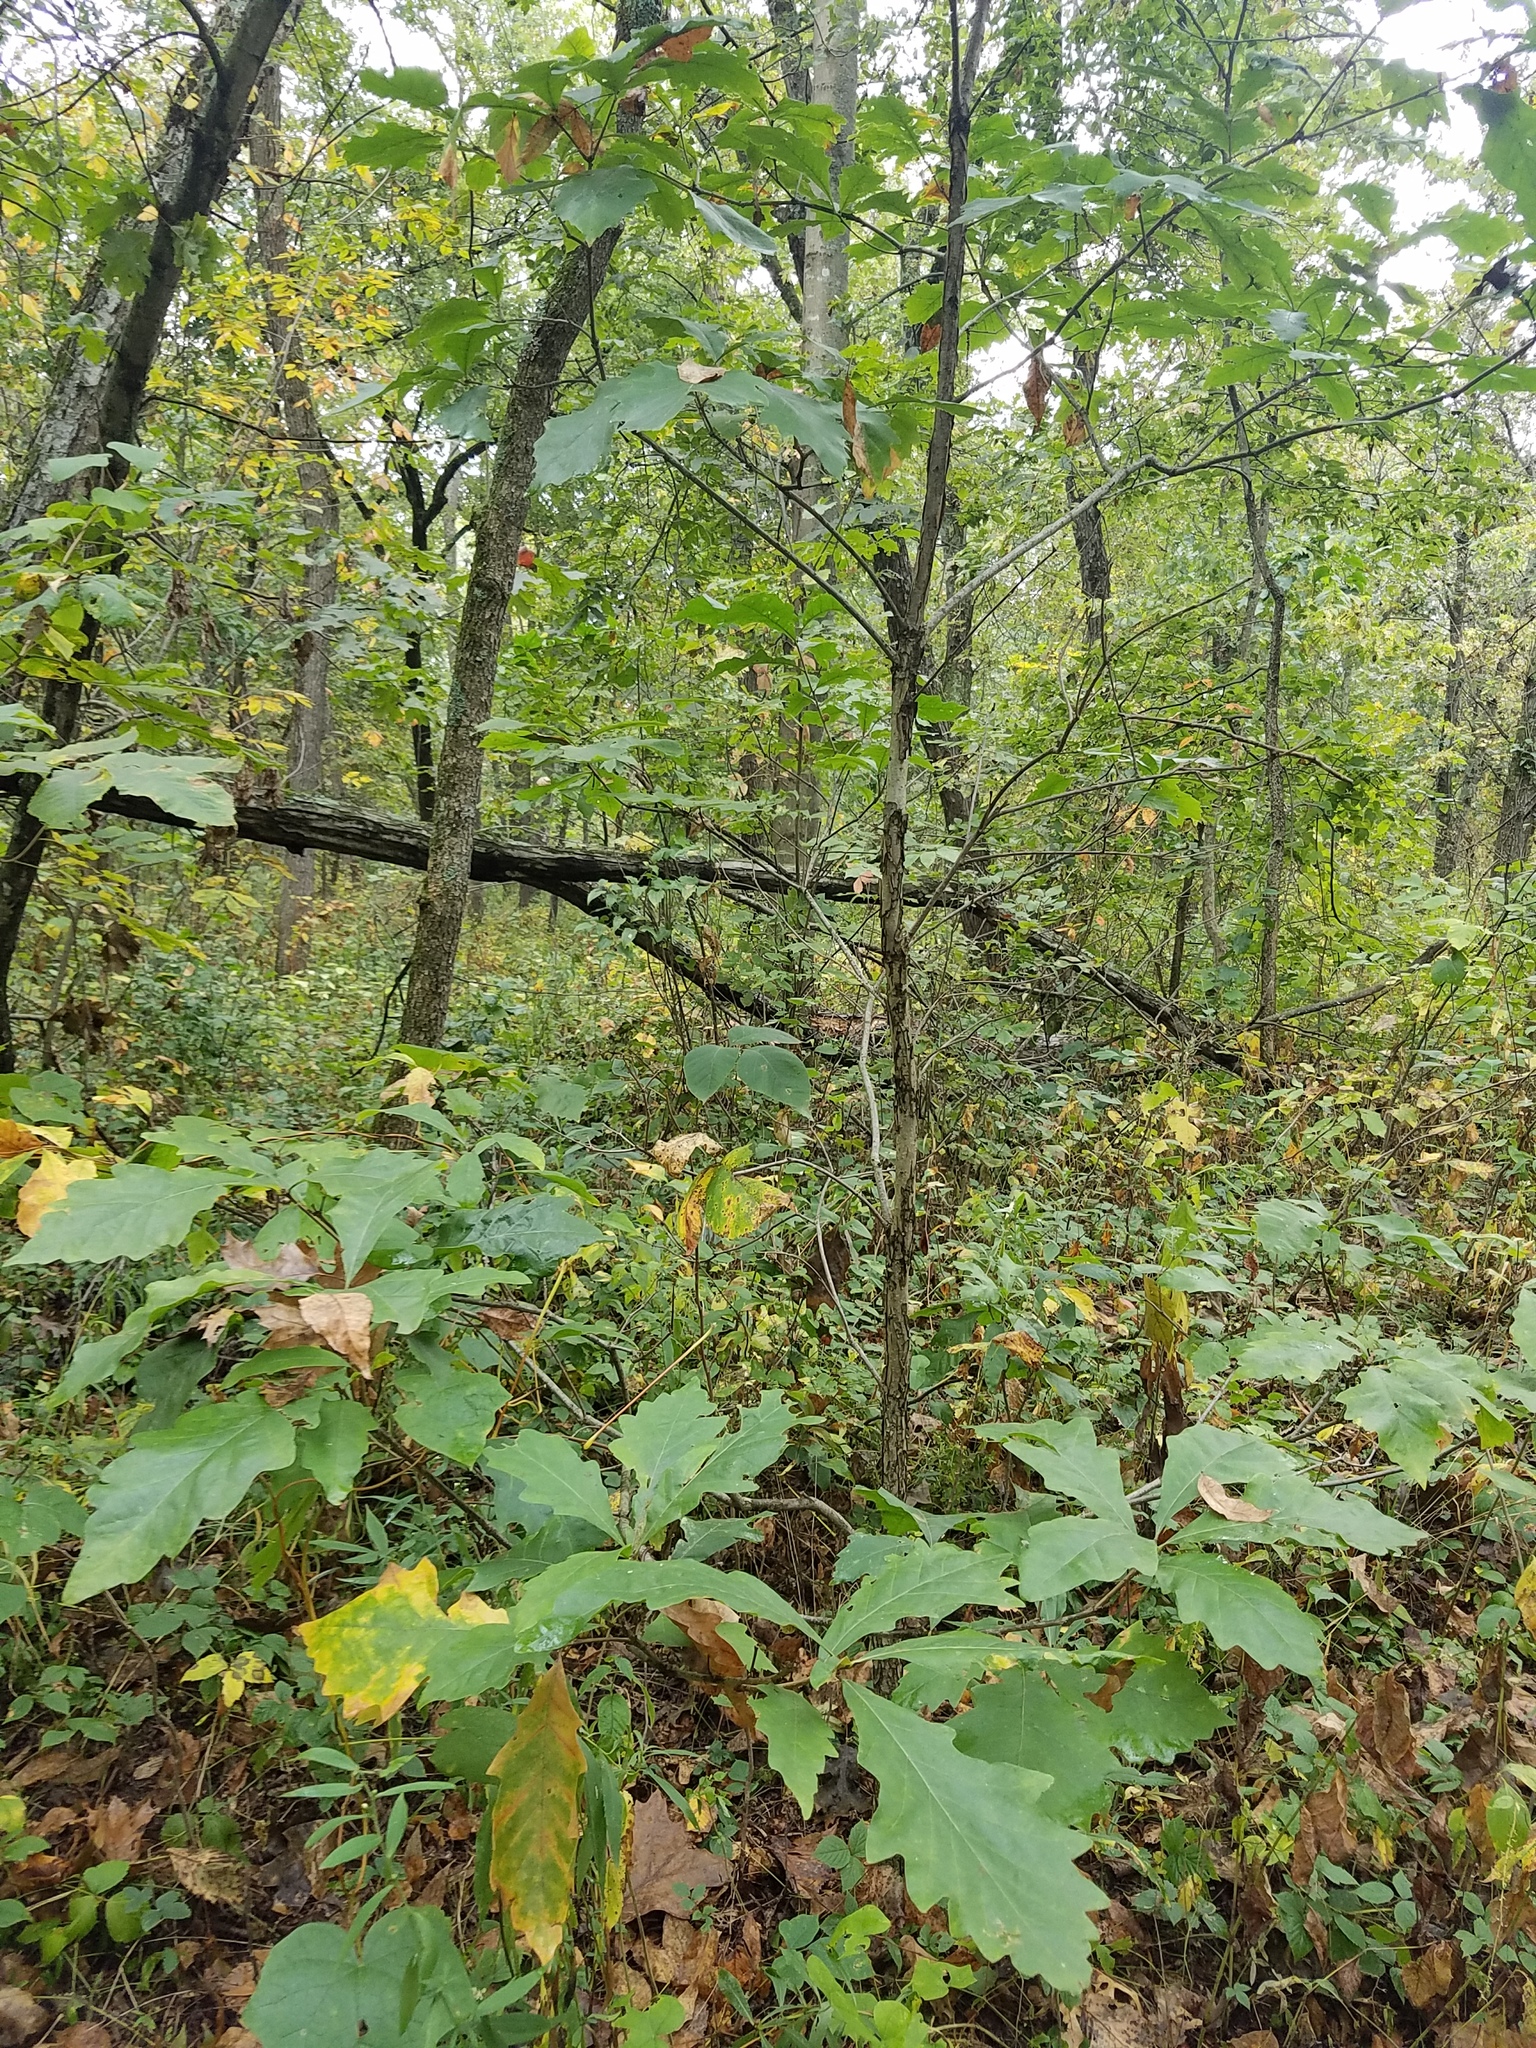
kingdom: Plantae
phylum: Tracheophyta
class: Magnoliopsida
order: Fagales
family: Fagaceae
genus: Quercus
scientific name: Quercus bicolor
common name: Swamp white oak
